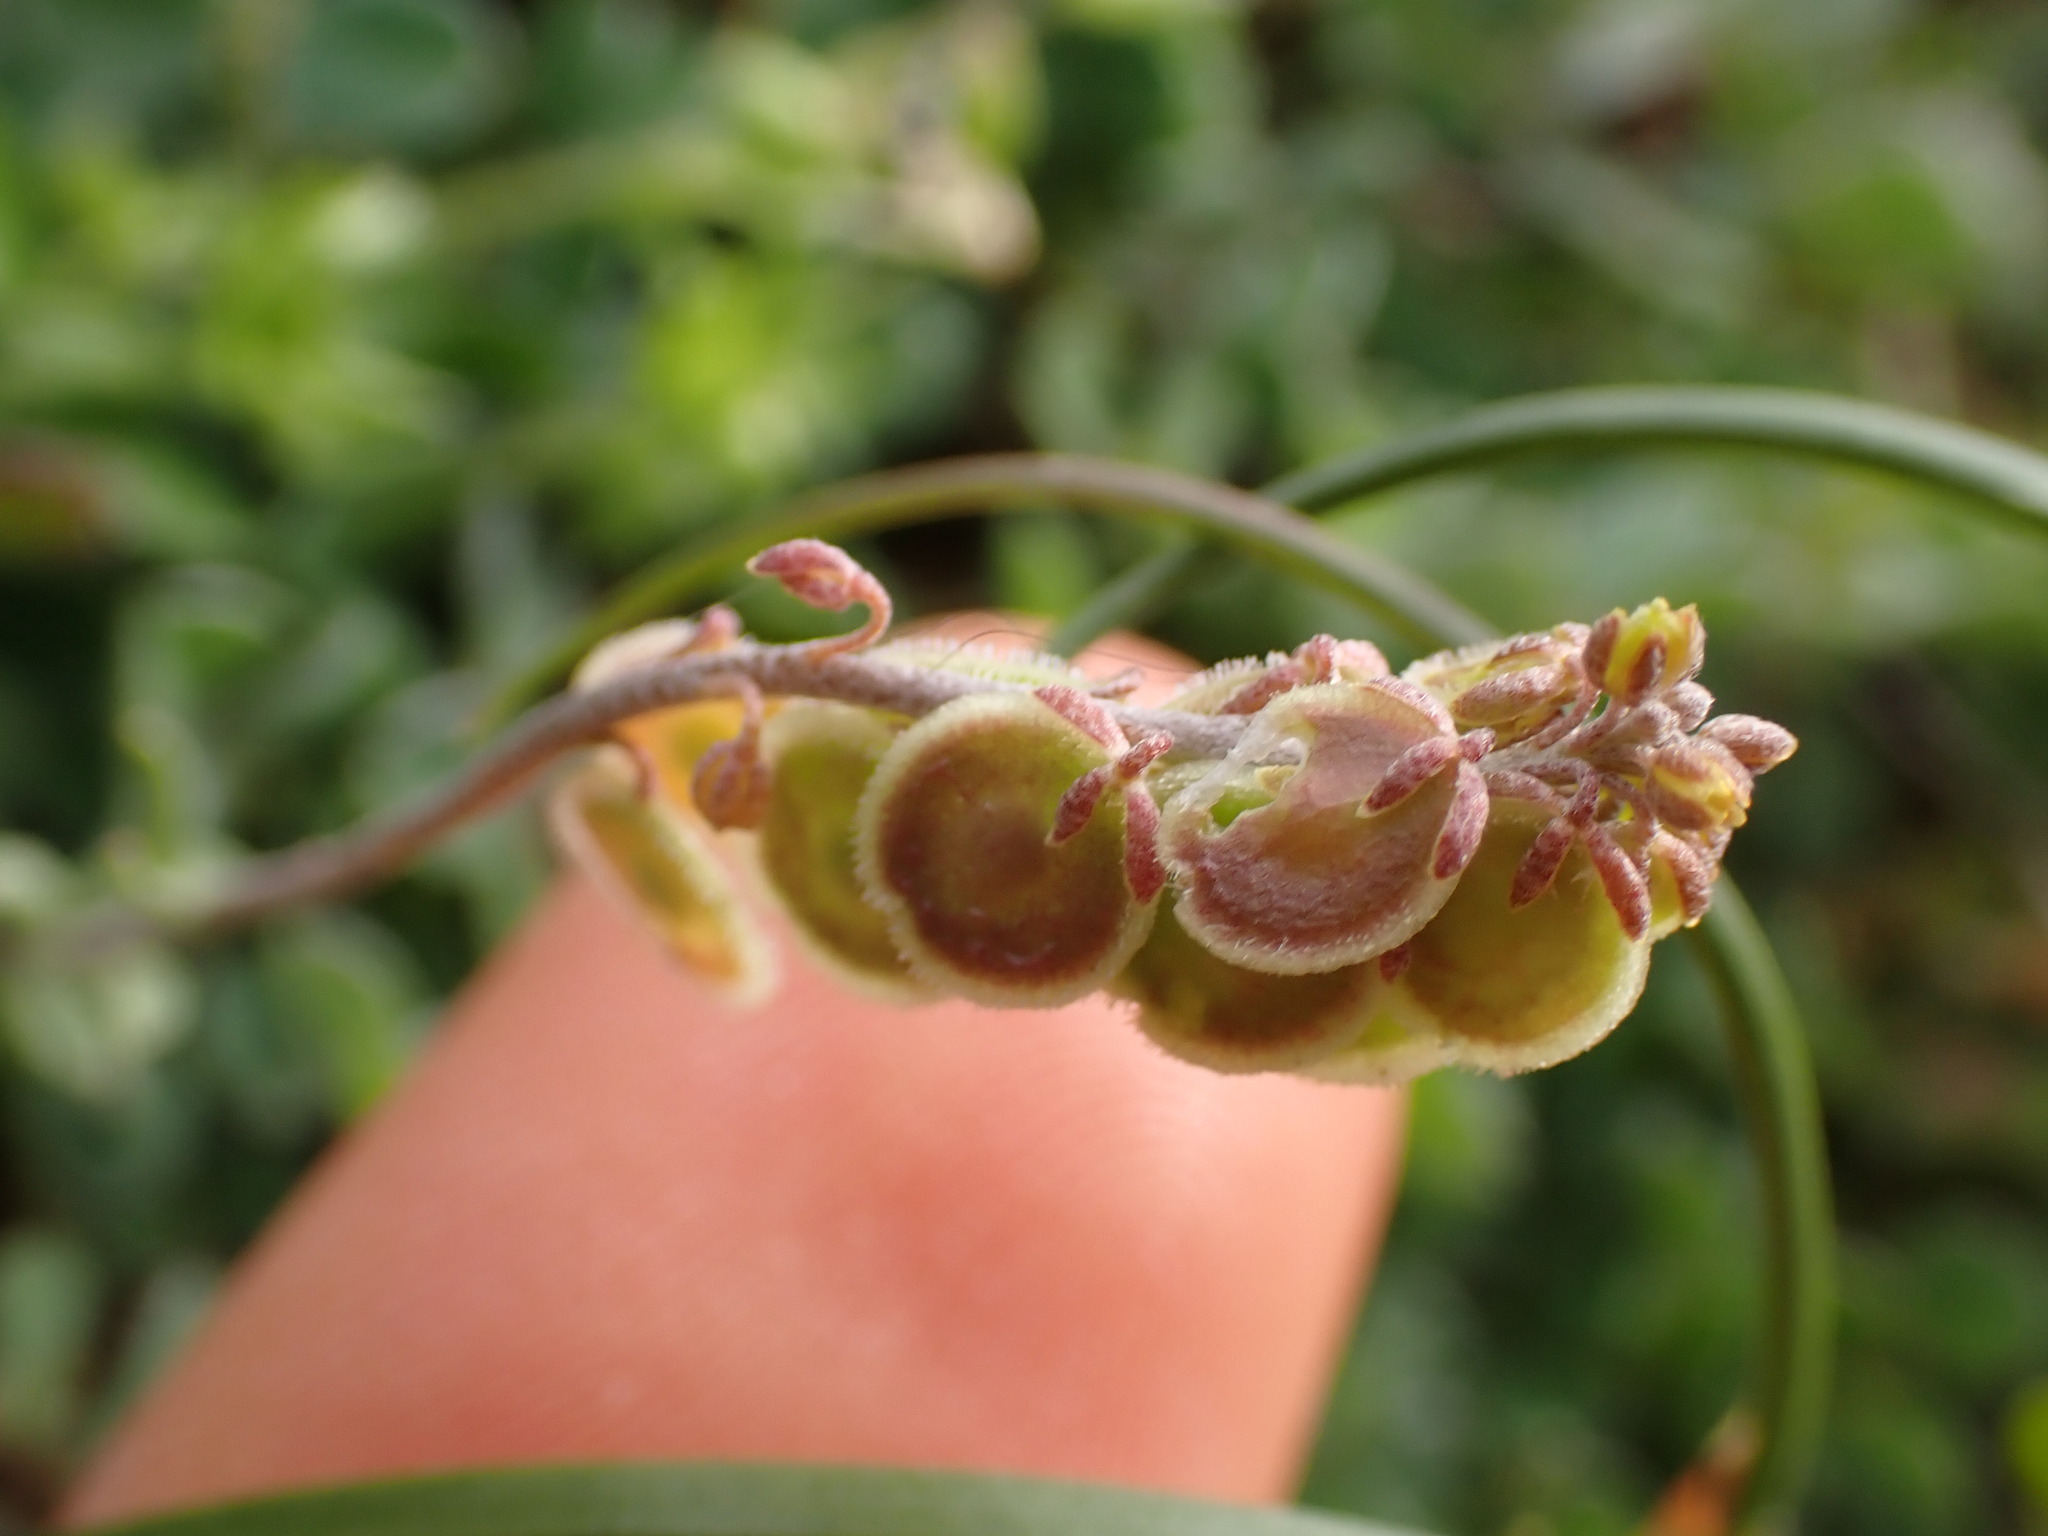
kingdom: Plantae
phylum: Tracheophyta
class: Magnoliopsida
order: Brassicales
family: Brassicaceae
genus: Clypeola
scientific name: Clypeola jonthlaspi
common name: Disk cress
